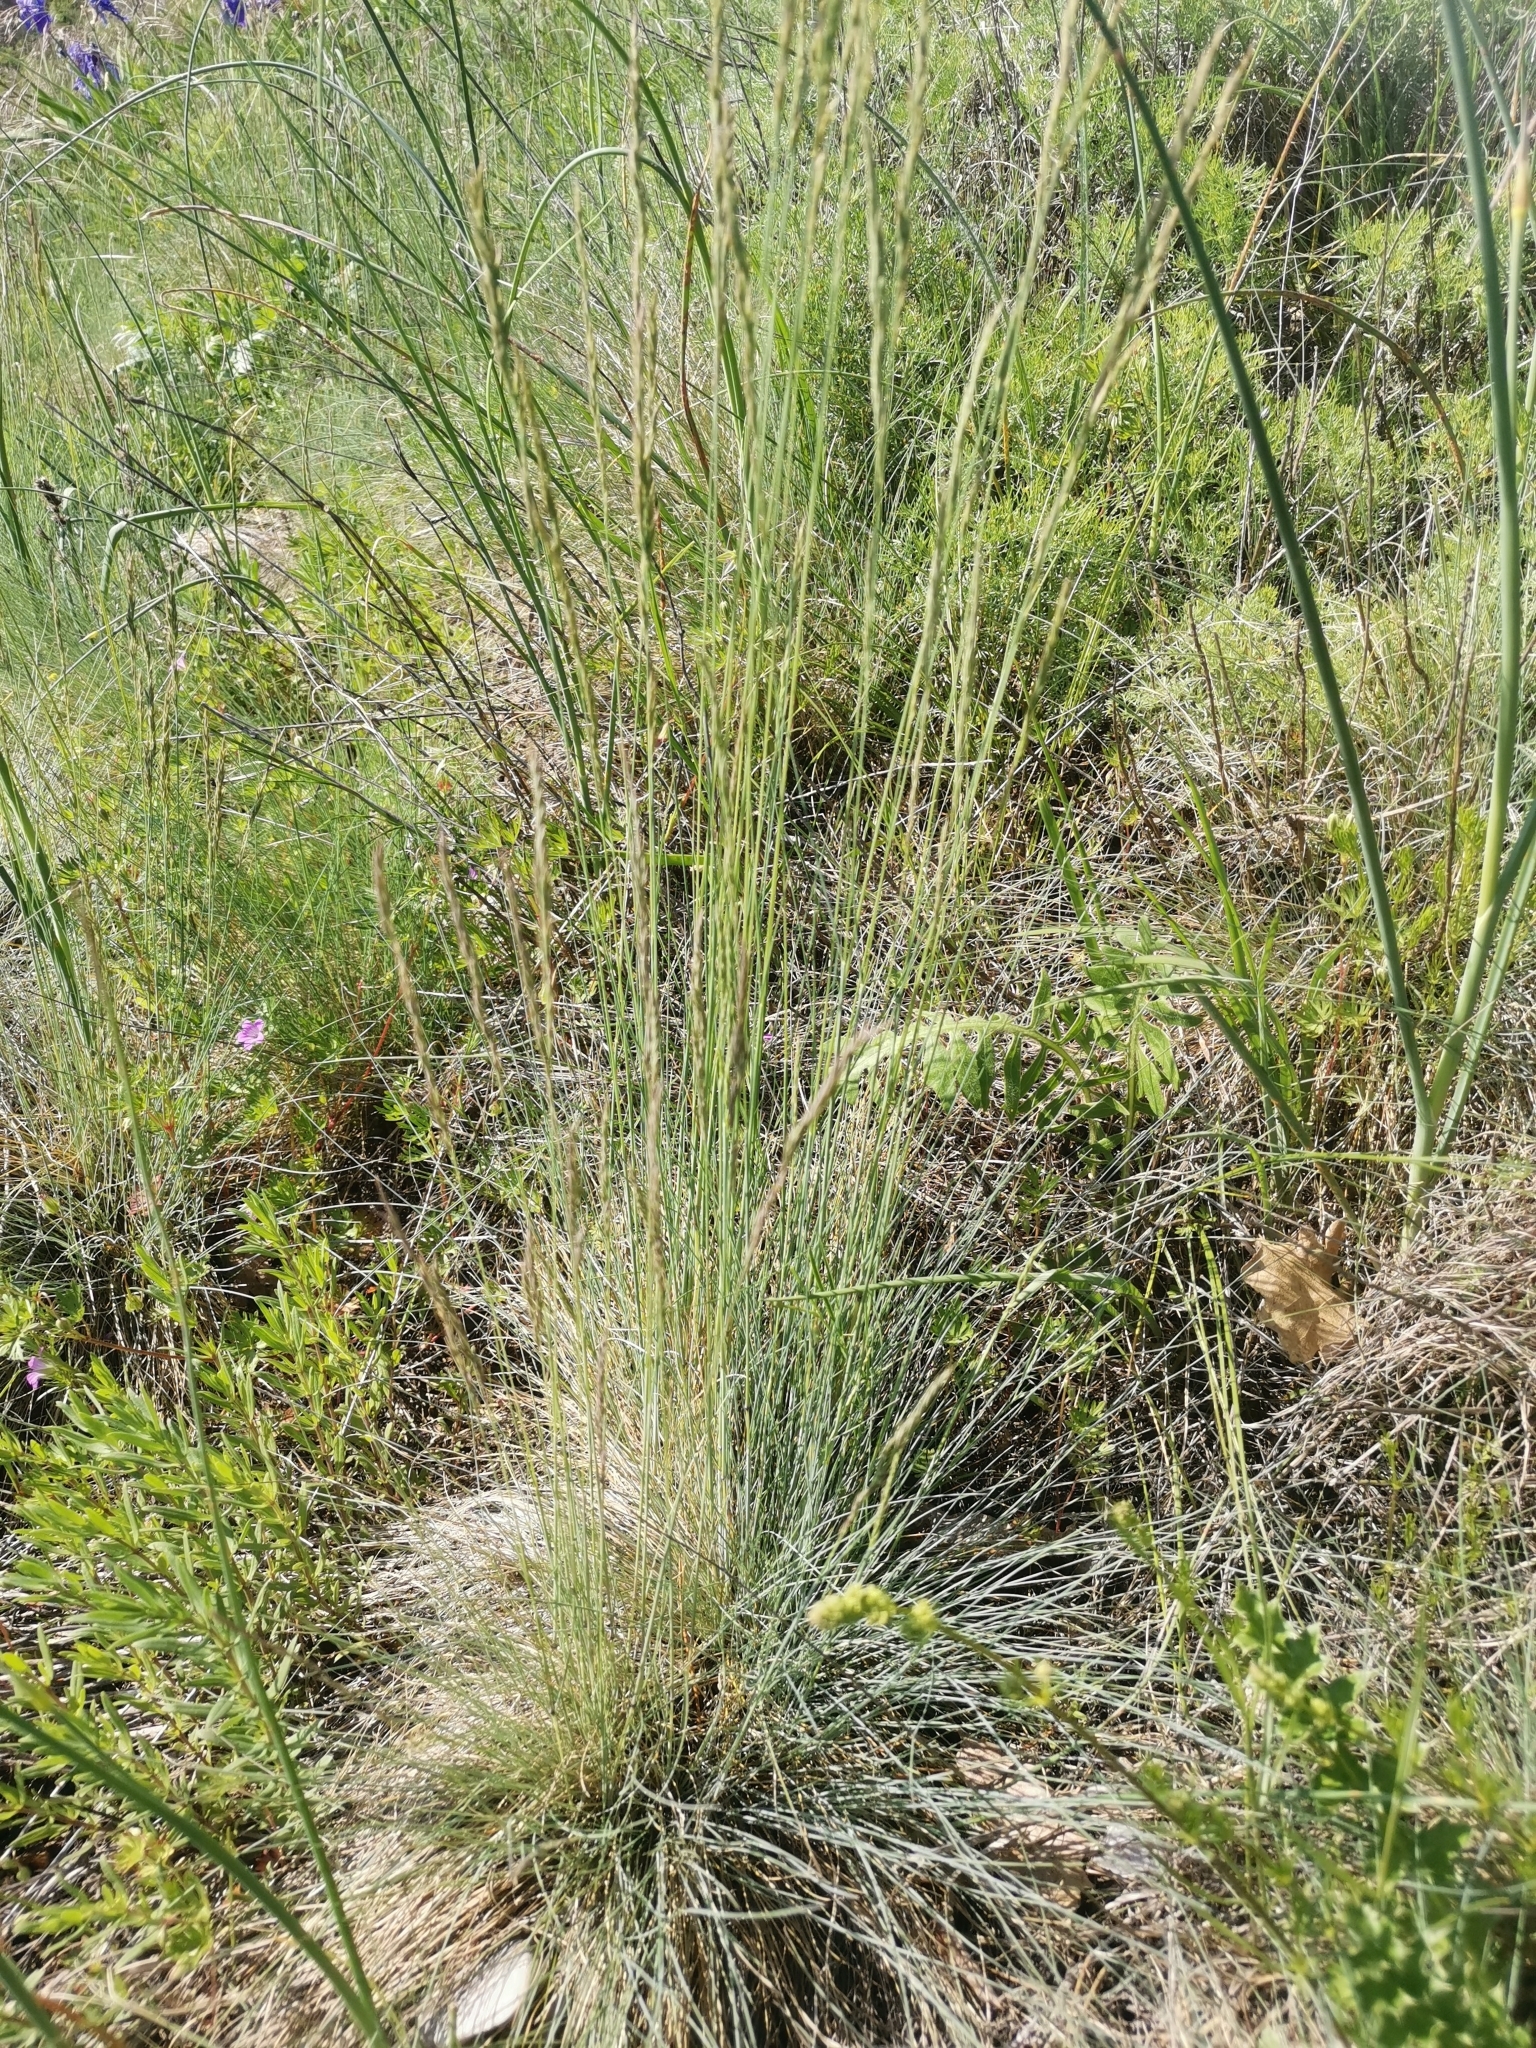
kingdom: Plantae
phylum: Tracheophyta
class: Liliopsida
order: Poales
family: Poaceae
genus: Festuca
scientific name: Festuca valesiaca
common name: Volga fescue
